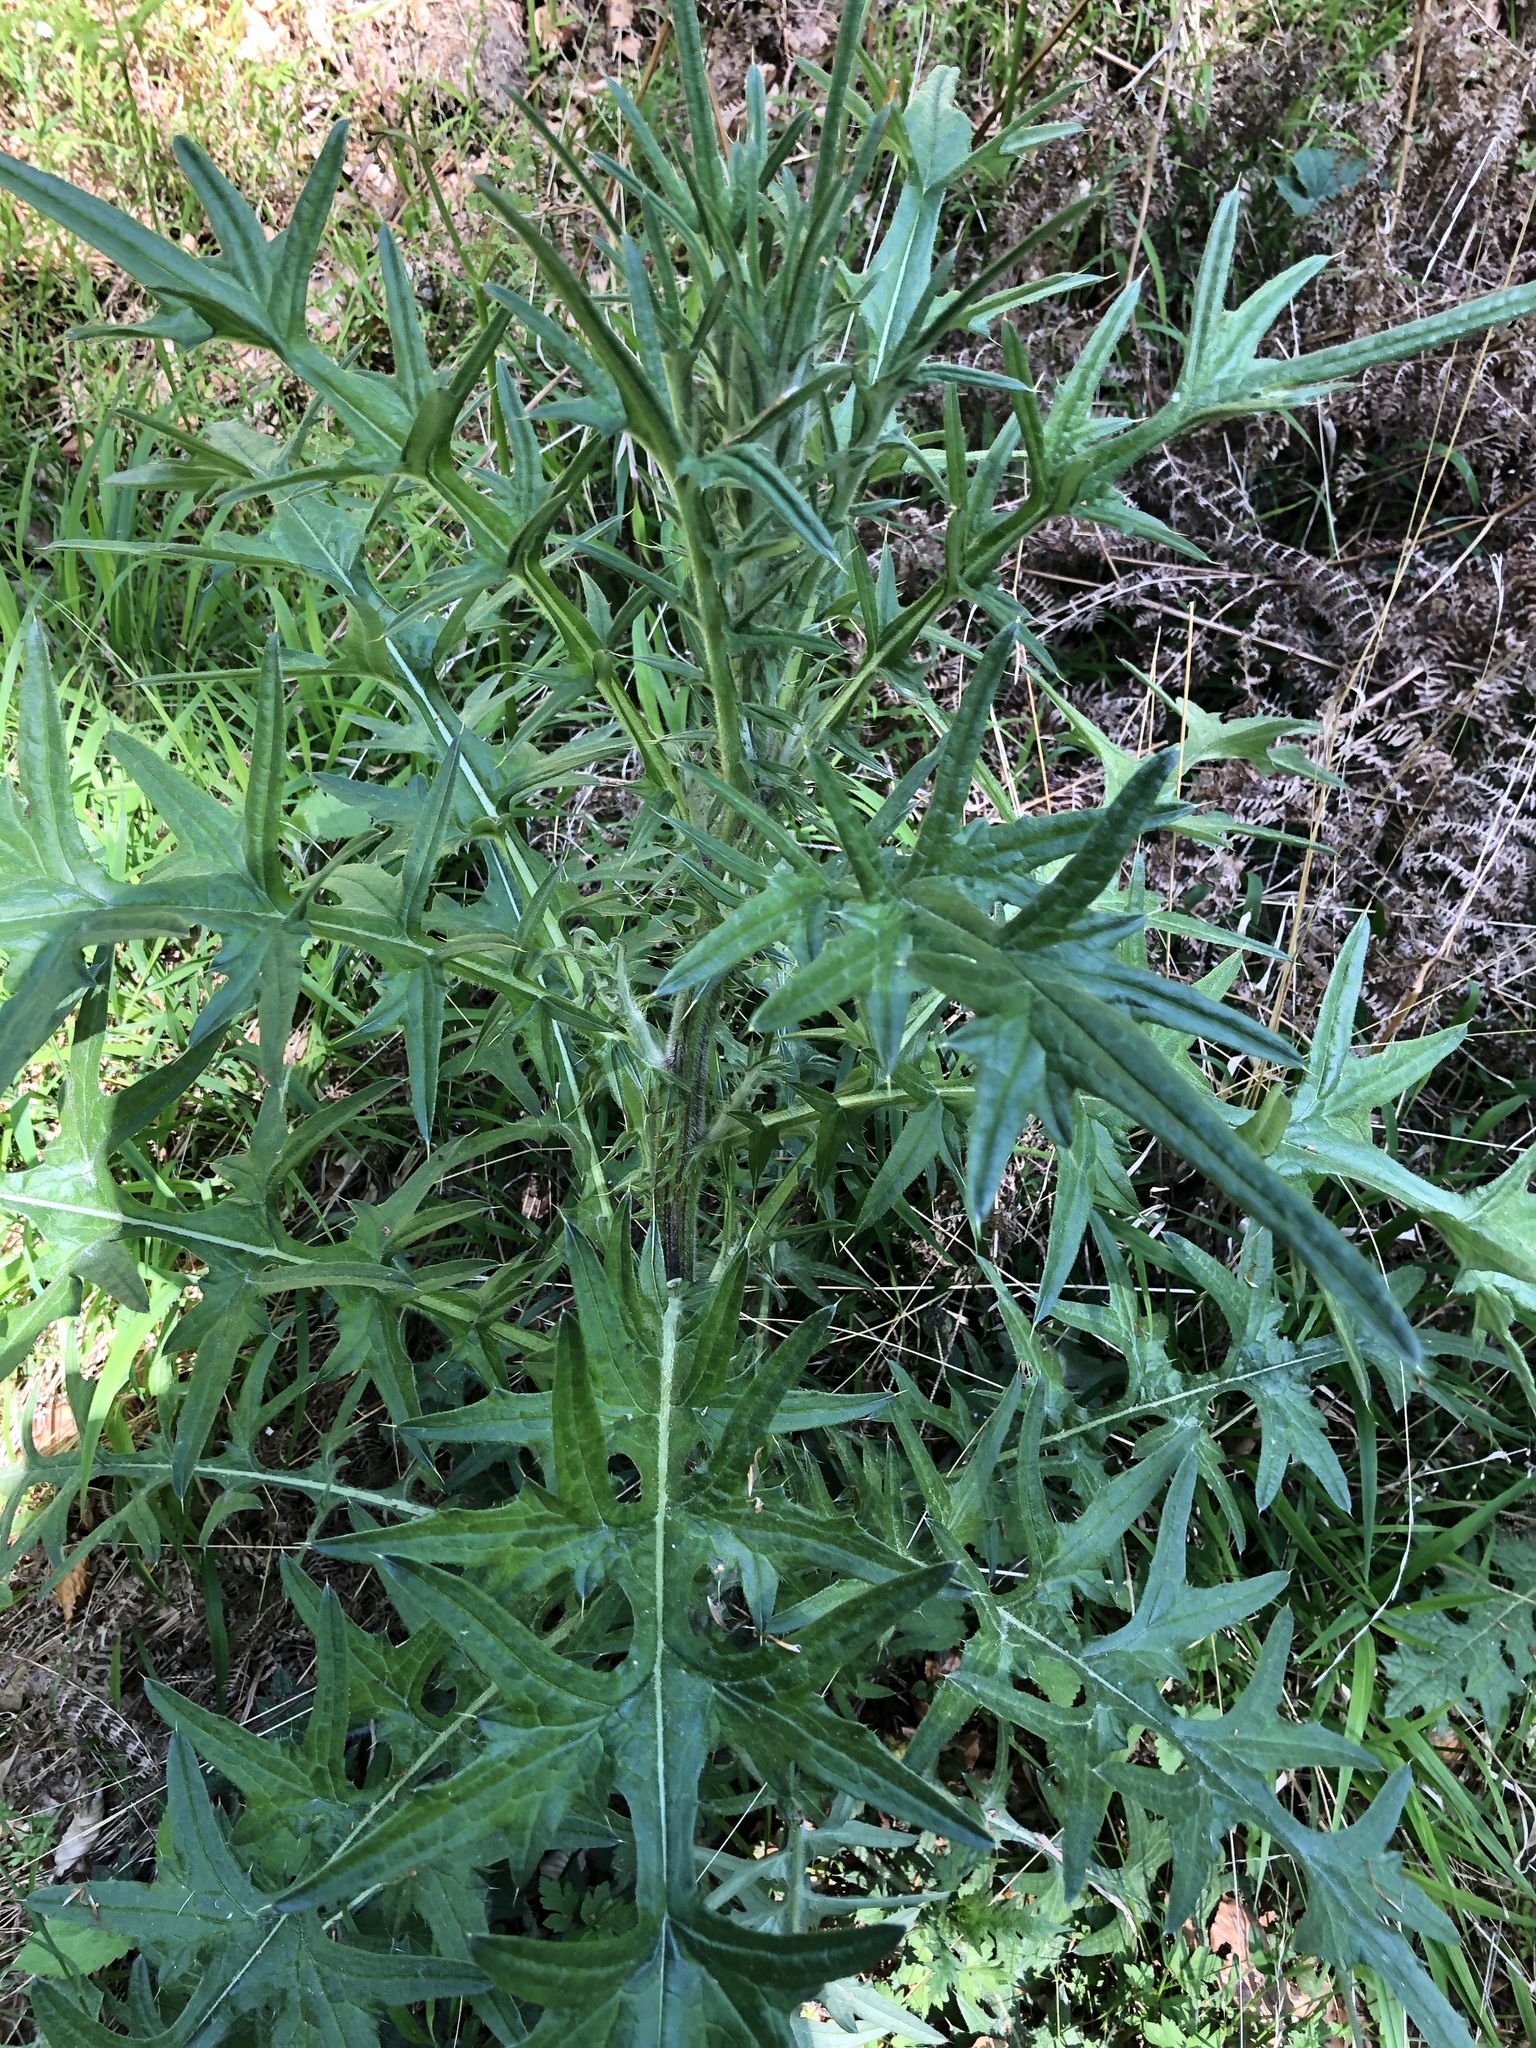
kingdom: Plantae
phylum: Tracheophyta
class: Magnoliopsida
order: Asterales
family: Asteraceae
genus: Cirsium
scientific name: Cirsium vulgare
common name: Bull thistle
